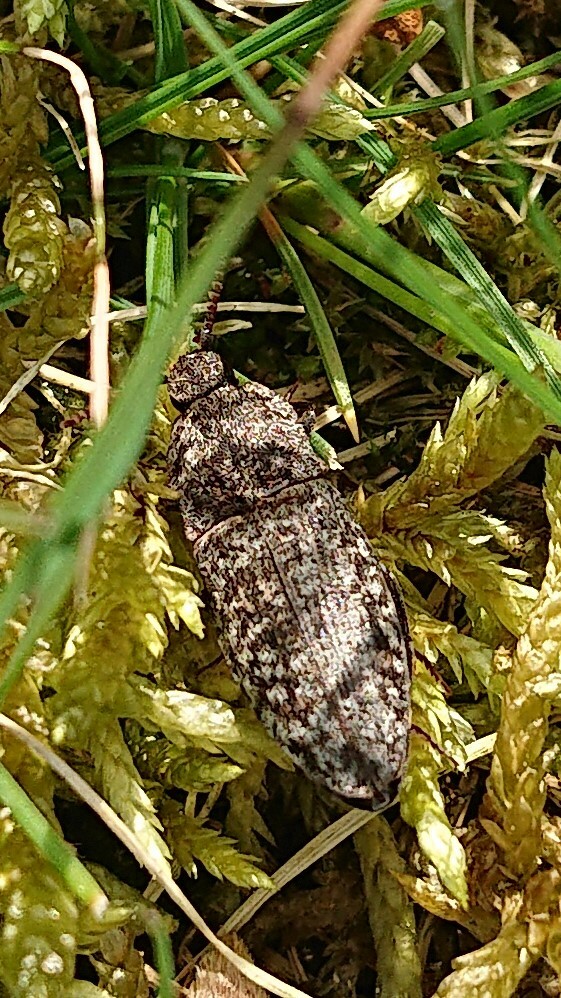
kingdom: Animalia
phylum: Arthropoda
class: Insecta
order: Coleoptera
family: Elateridae
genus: Agrypnus
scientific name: Agrypnus murinus
